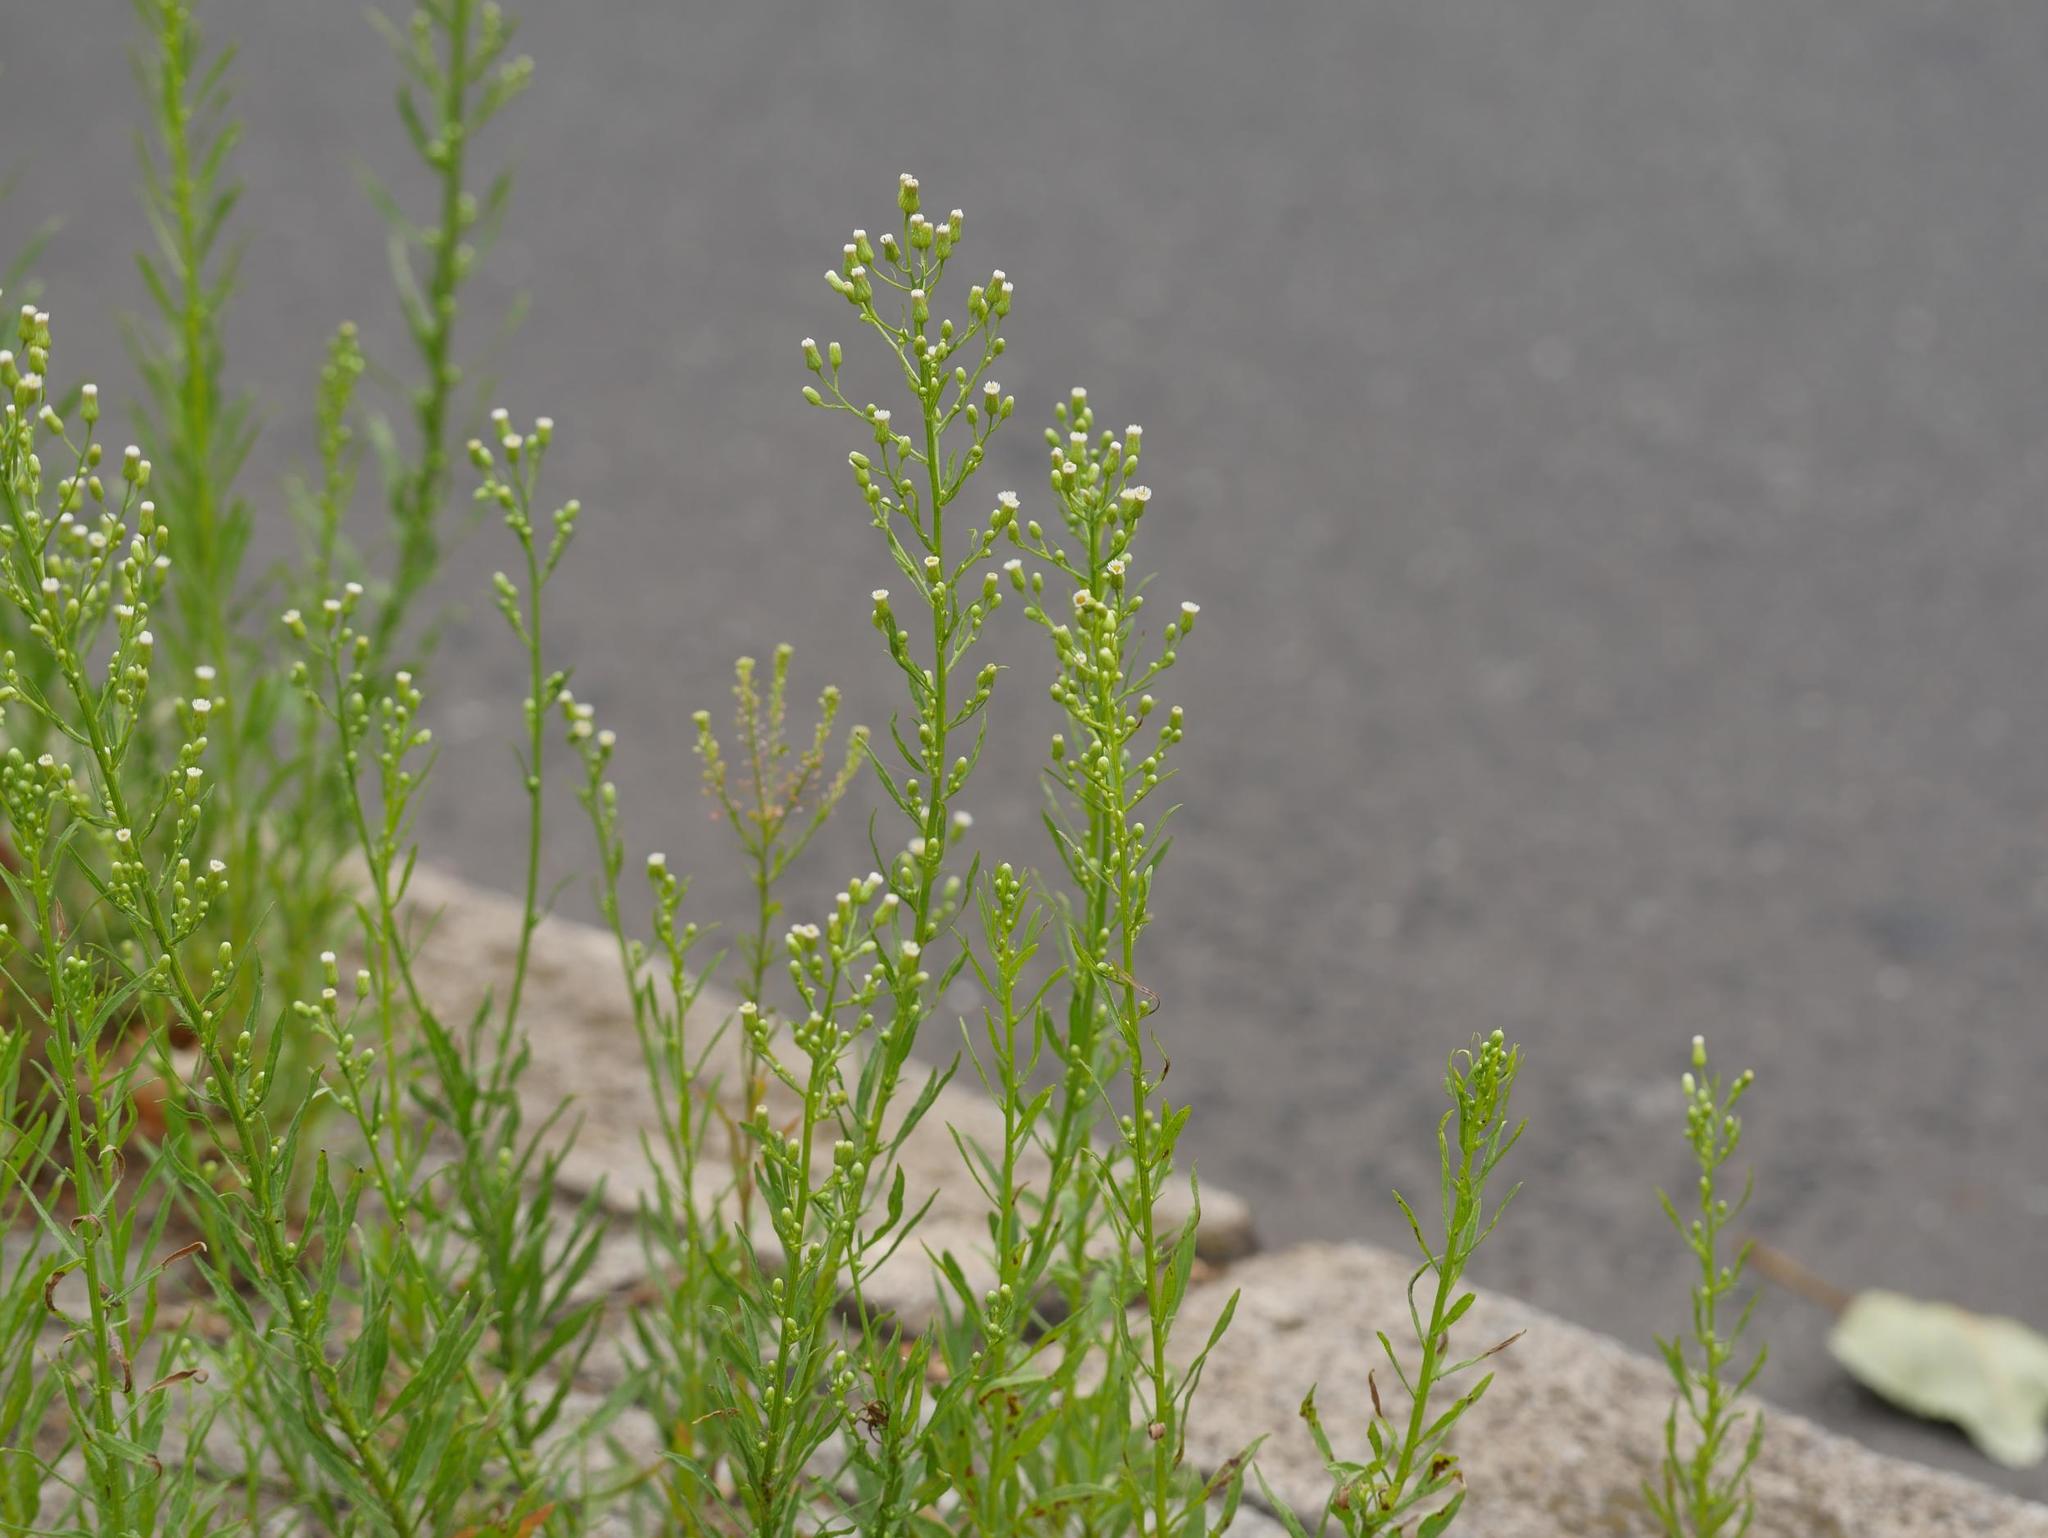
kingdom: Plantae
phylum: Tracheophyta
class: Magnoliopsida
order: Asterales
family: Asteraceae
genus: Erigeron
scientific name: Erigeron canadensis
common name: Canadian fleabane
